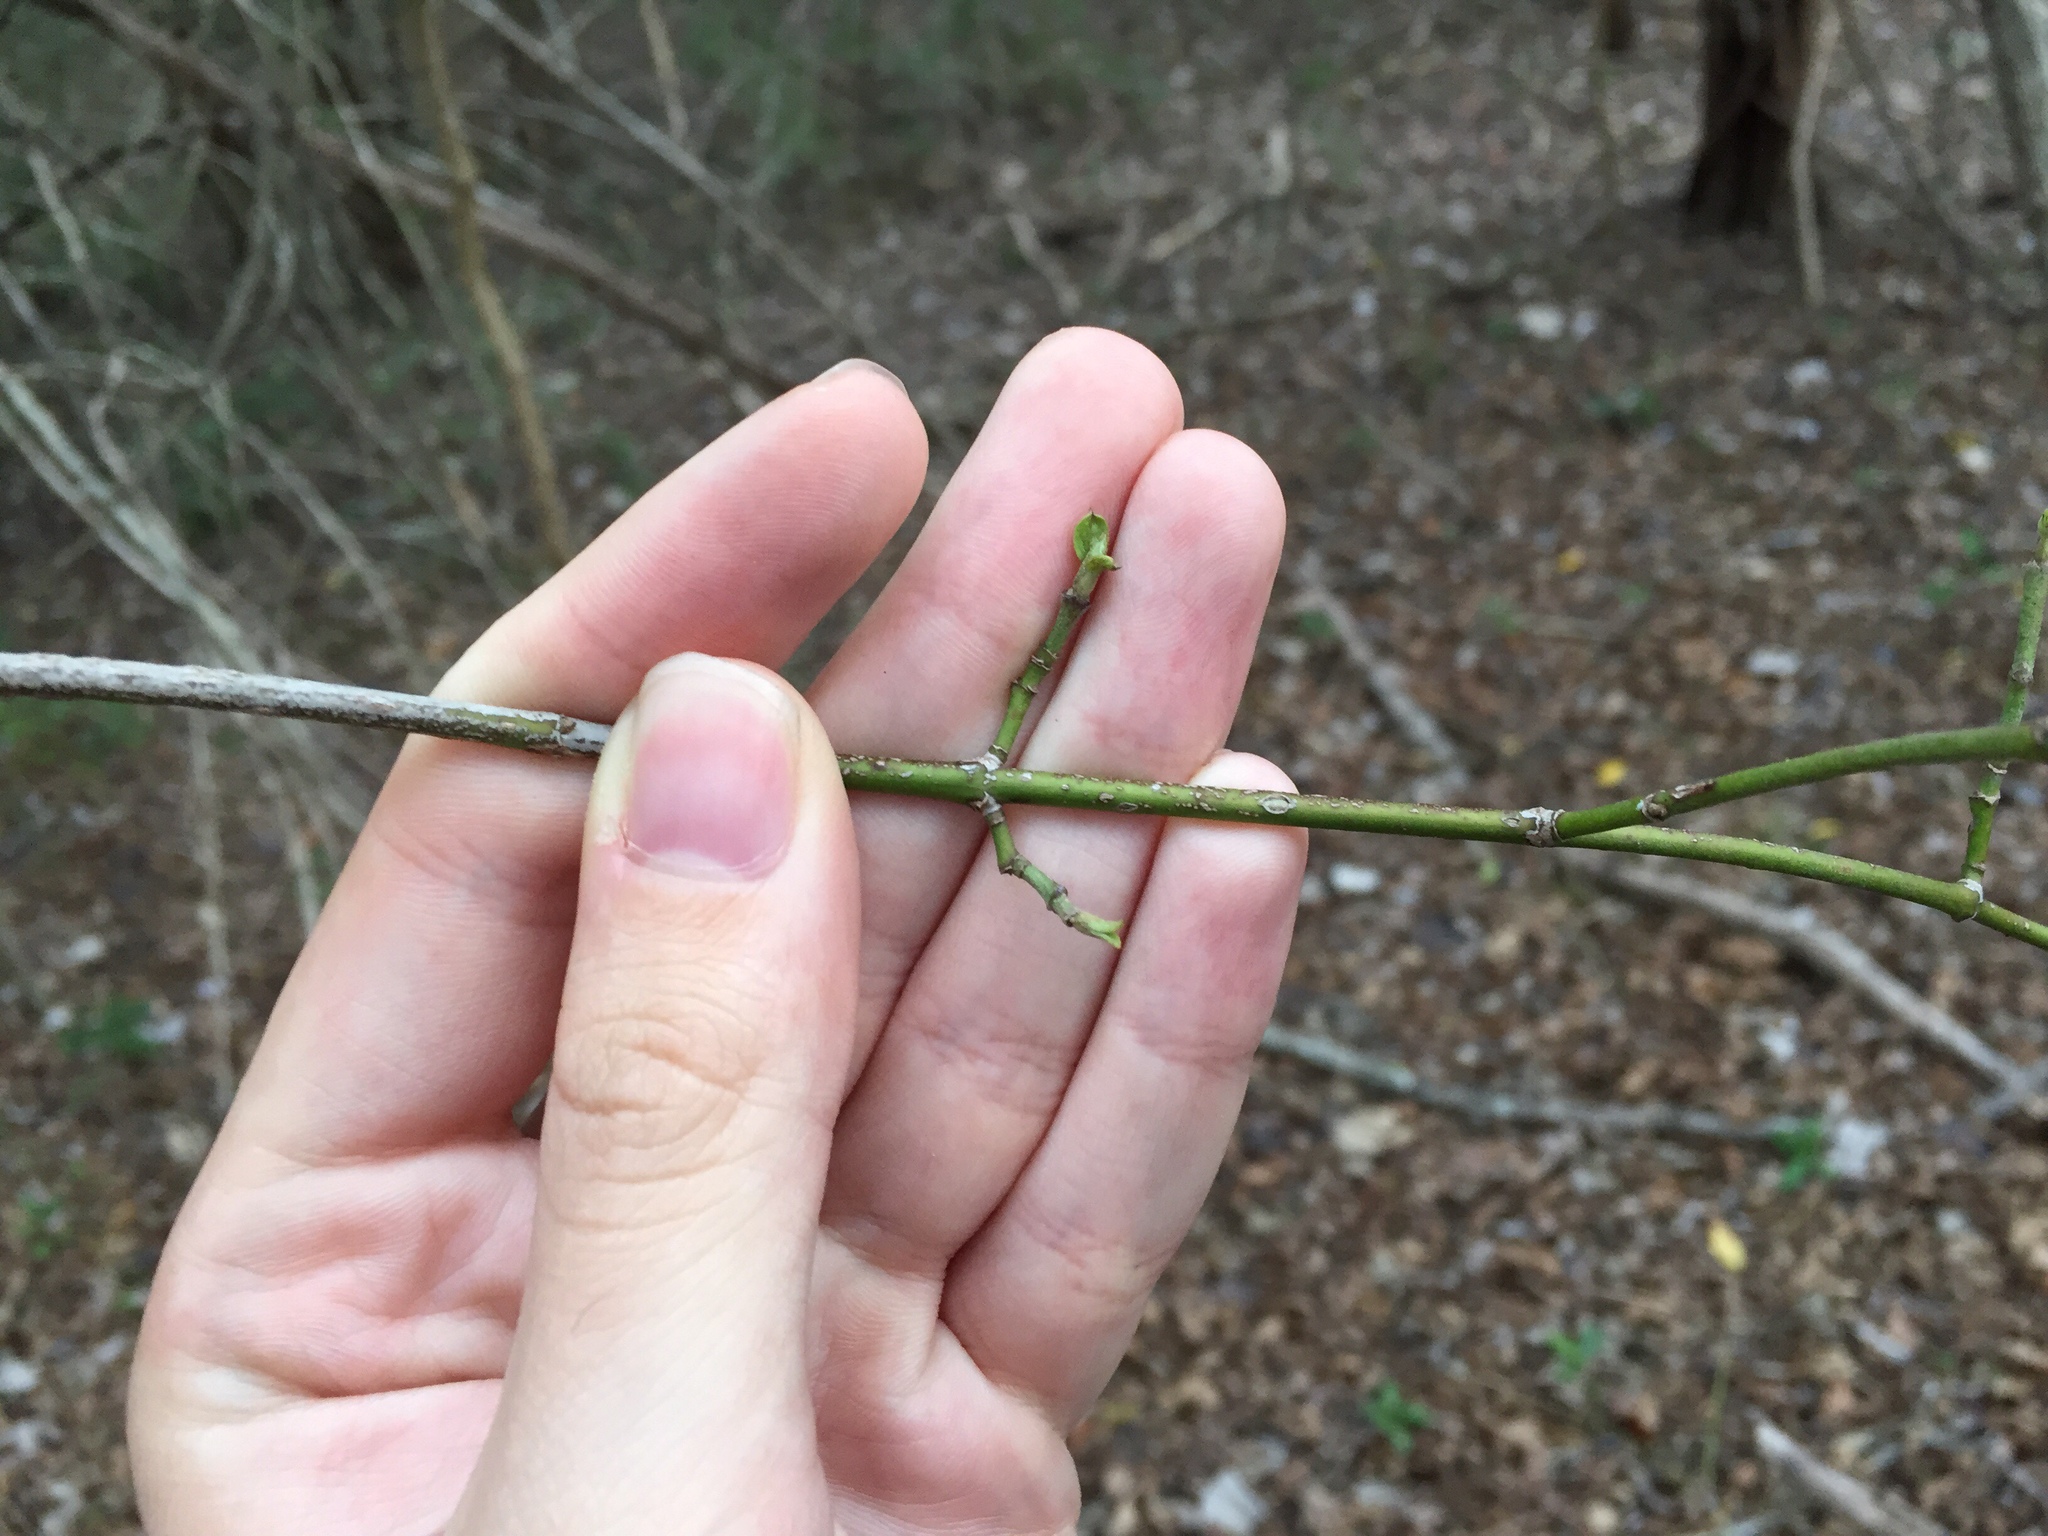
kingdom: Plantae
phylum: Tracheophyta
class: Magnoliopsida
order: Sapindales
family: Sapindaceae
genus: Acer
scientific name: Acer negundo
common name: Ashleaf maple
